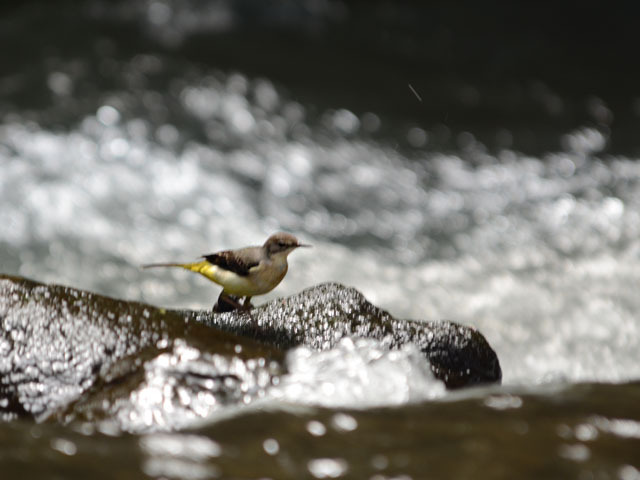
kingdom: Animalia
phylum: Chordata
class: Aves
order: Passeriformes
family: Motacillidae
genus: Motacilla
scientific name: Motacilla cinerea
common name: Grey wagtail
